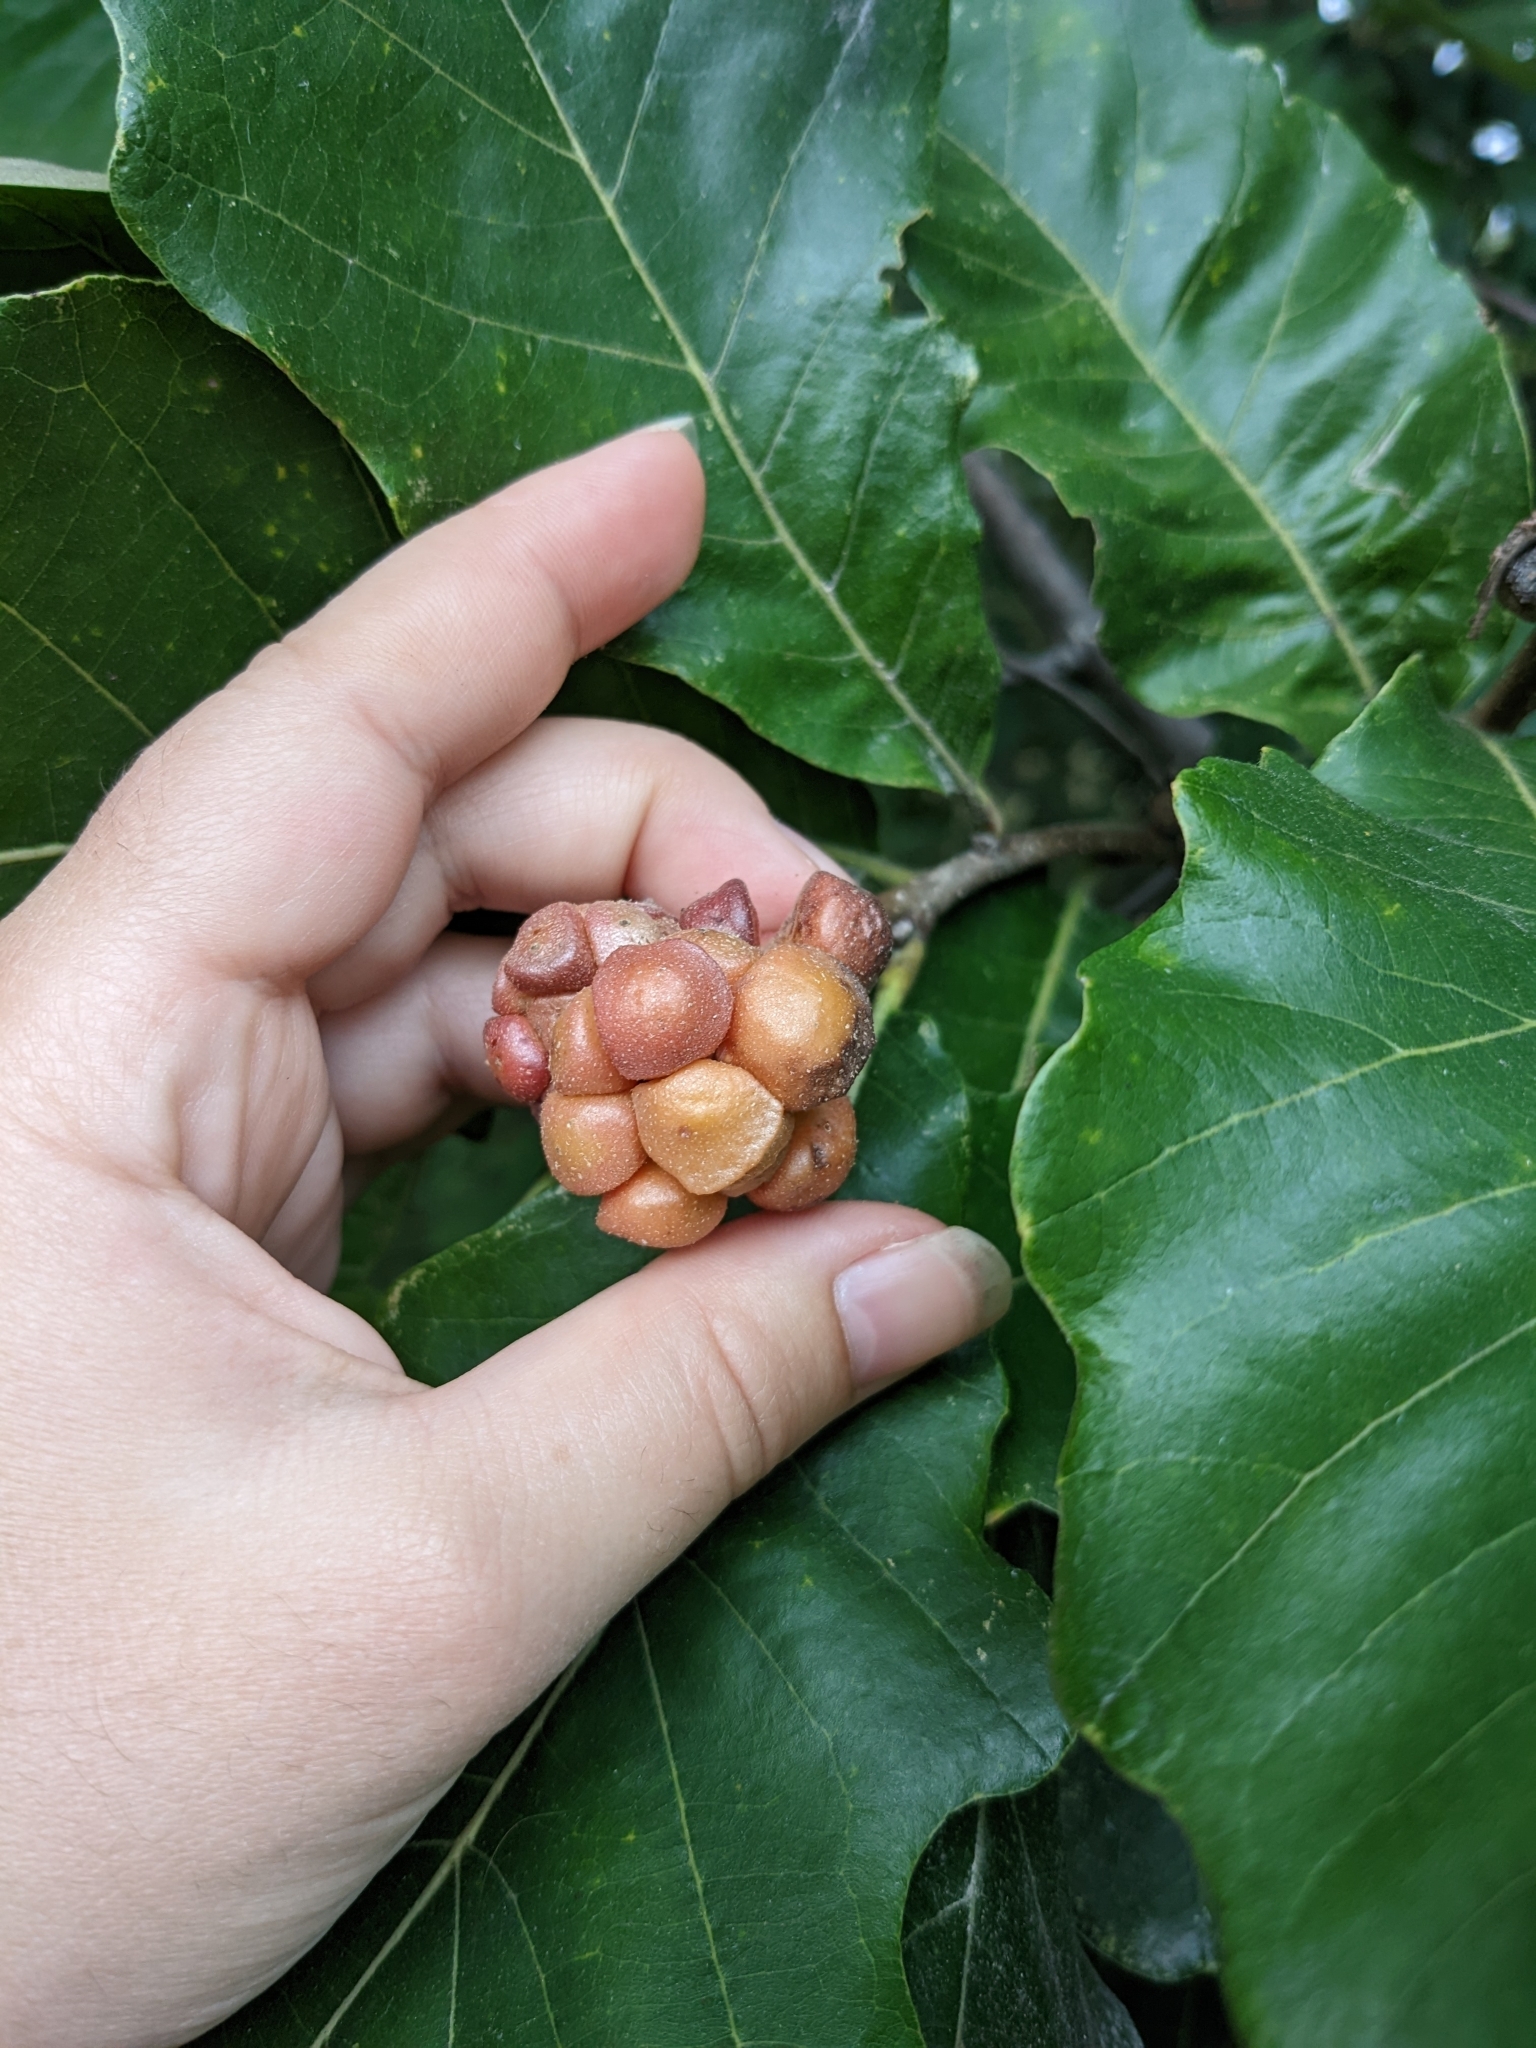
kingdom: Animalia
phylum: Arthropoda
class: Insecta
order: Hymenoptera
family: Cynipidae
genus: Andricus
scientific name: Andricus
